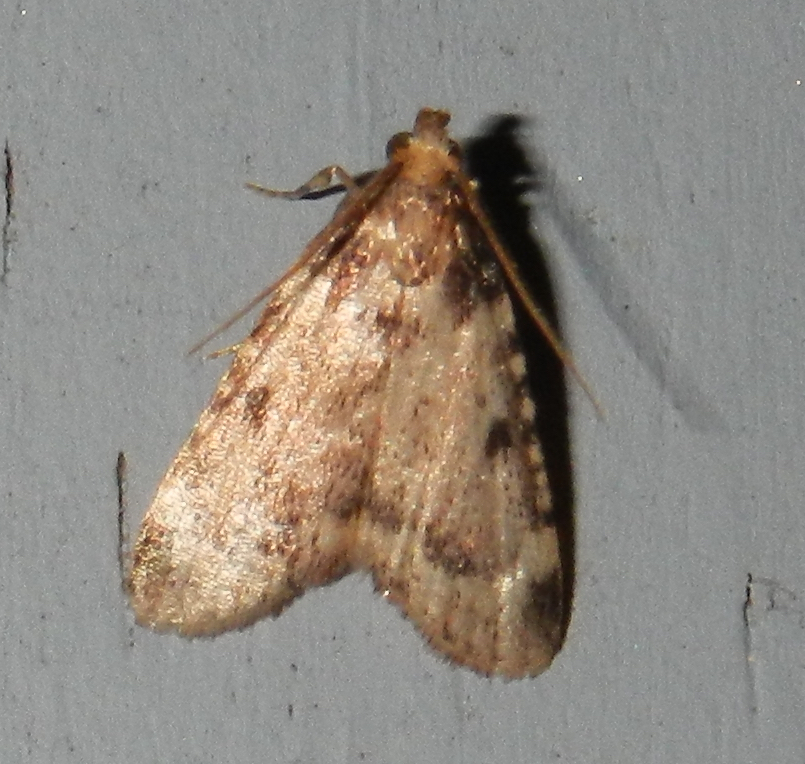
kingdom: Animalia
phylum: Arthropoda
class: Insecta
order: Lepidoptera
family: Pyralidae
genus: Aglossa
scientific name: Aglossa costiferalis
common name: Calico pyralid moth
